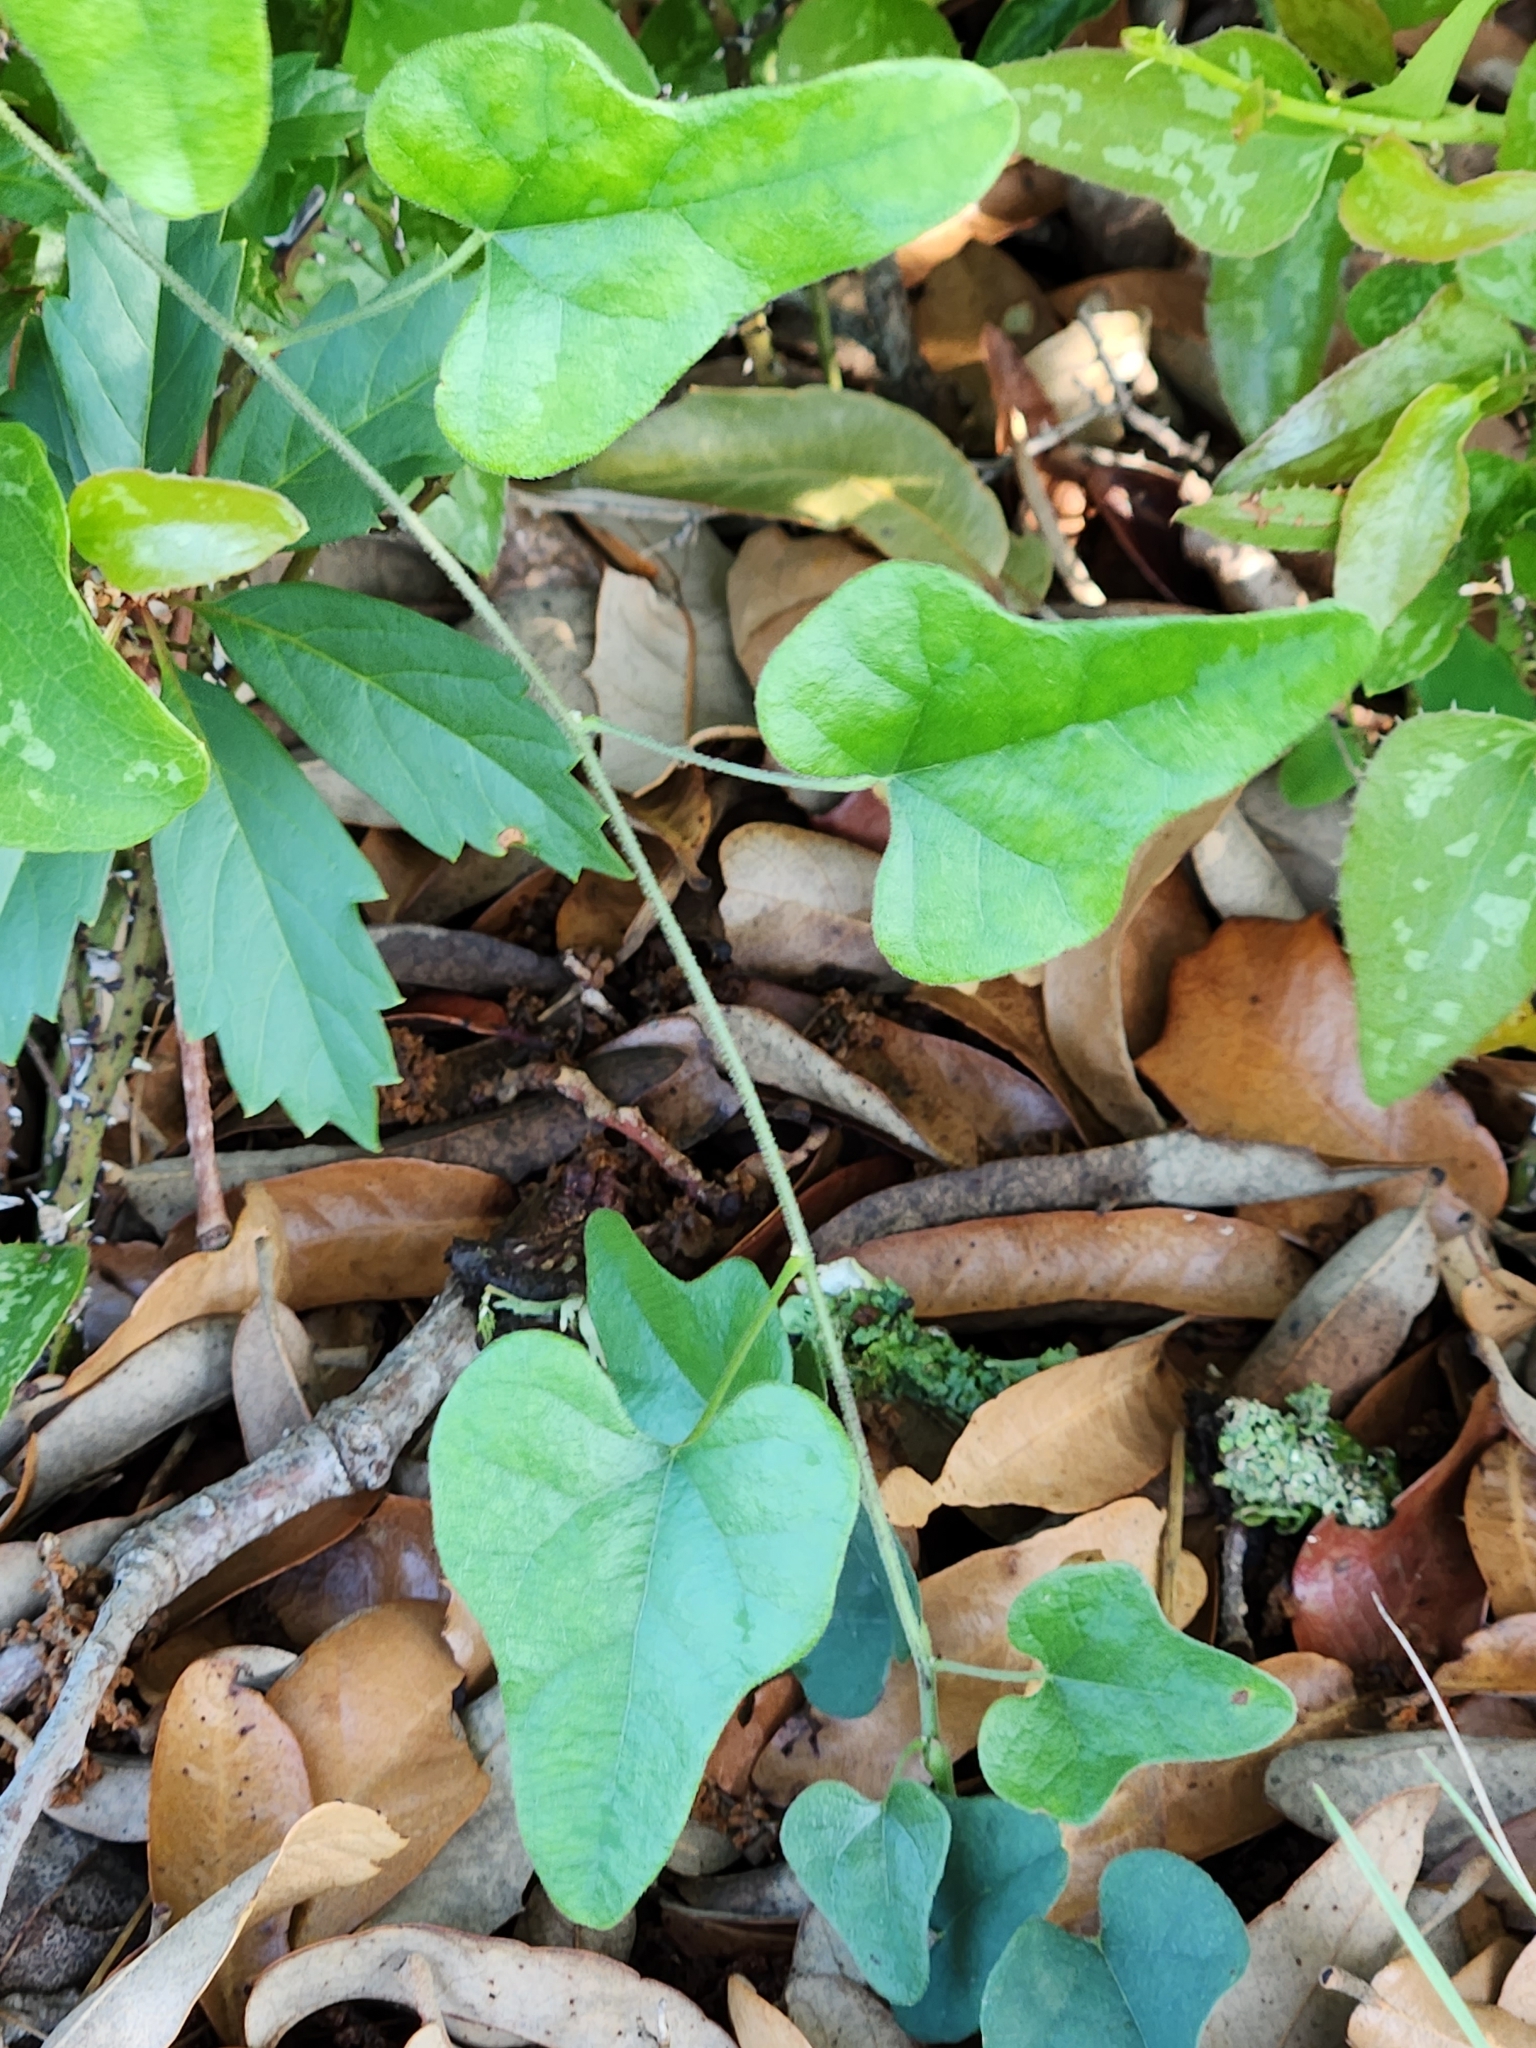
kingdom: Plantae
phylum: Tracheophyta
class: Magnoliopsida
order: Ranunculales
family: Menispermaceae
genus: Cocculus
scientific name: Cocculus carolinus
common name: Carolina moonseed
